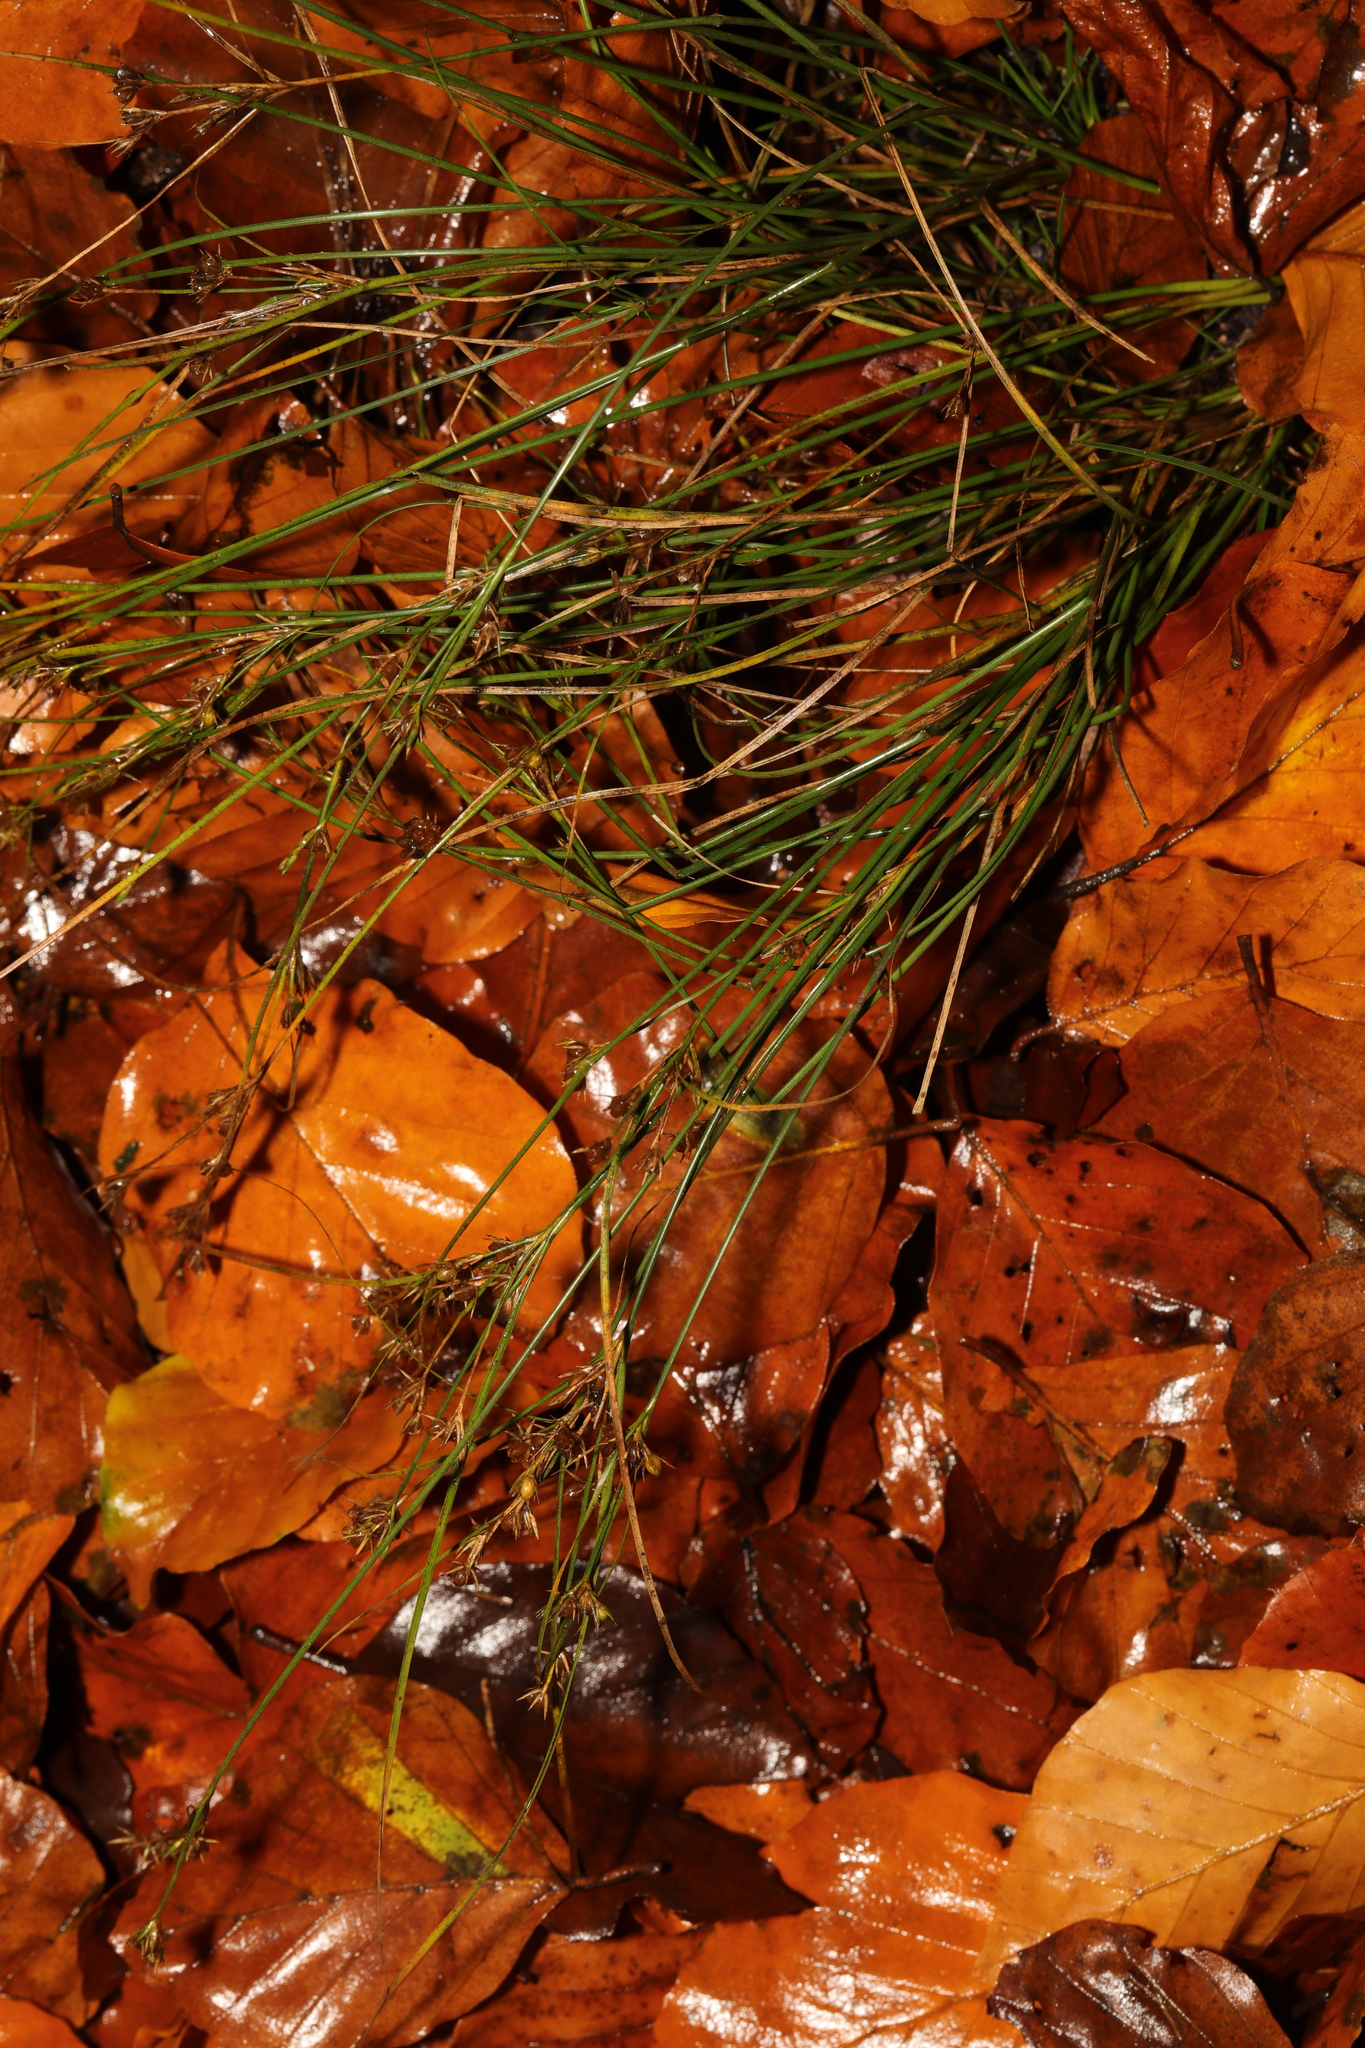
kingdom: Plantae
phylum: Tracheophyta
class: Liliopsida
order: Poales
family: Juncaceae
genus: Juncus
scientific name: Juncus tenuis
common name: Slender rush
